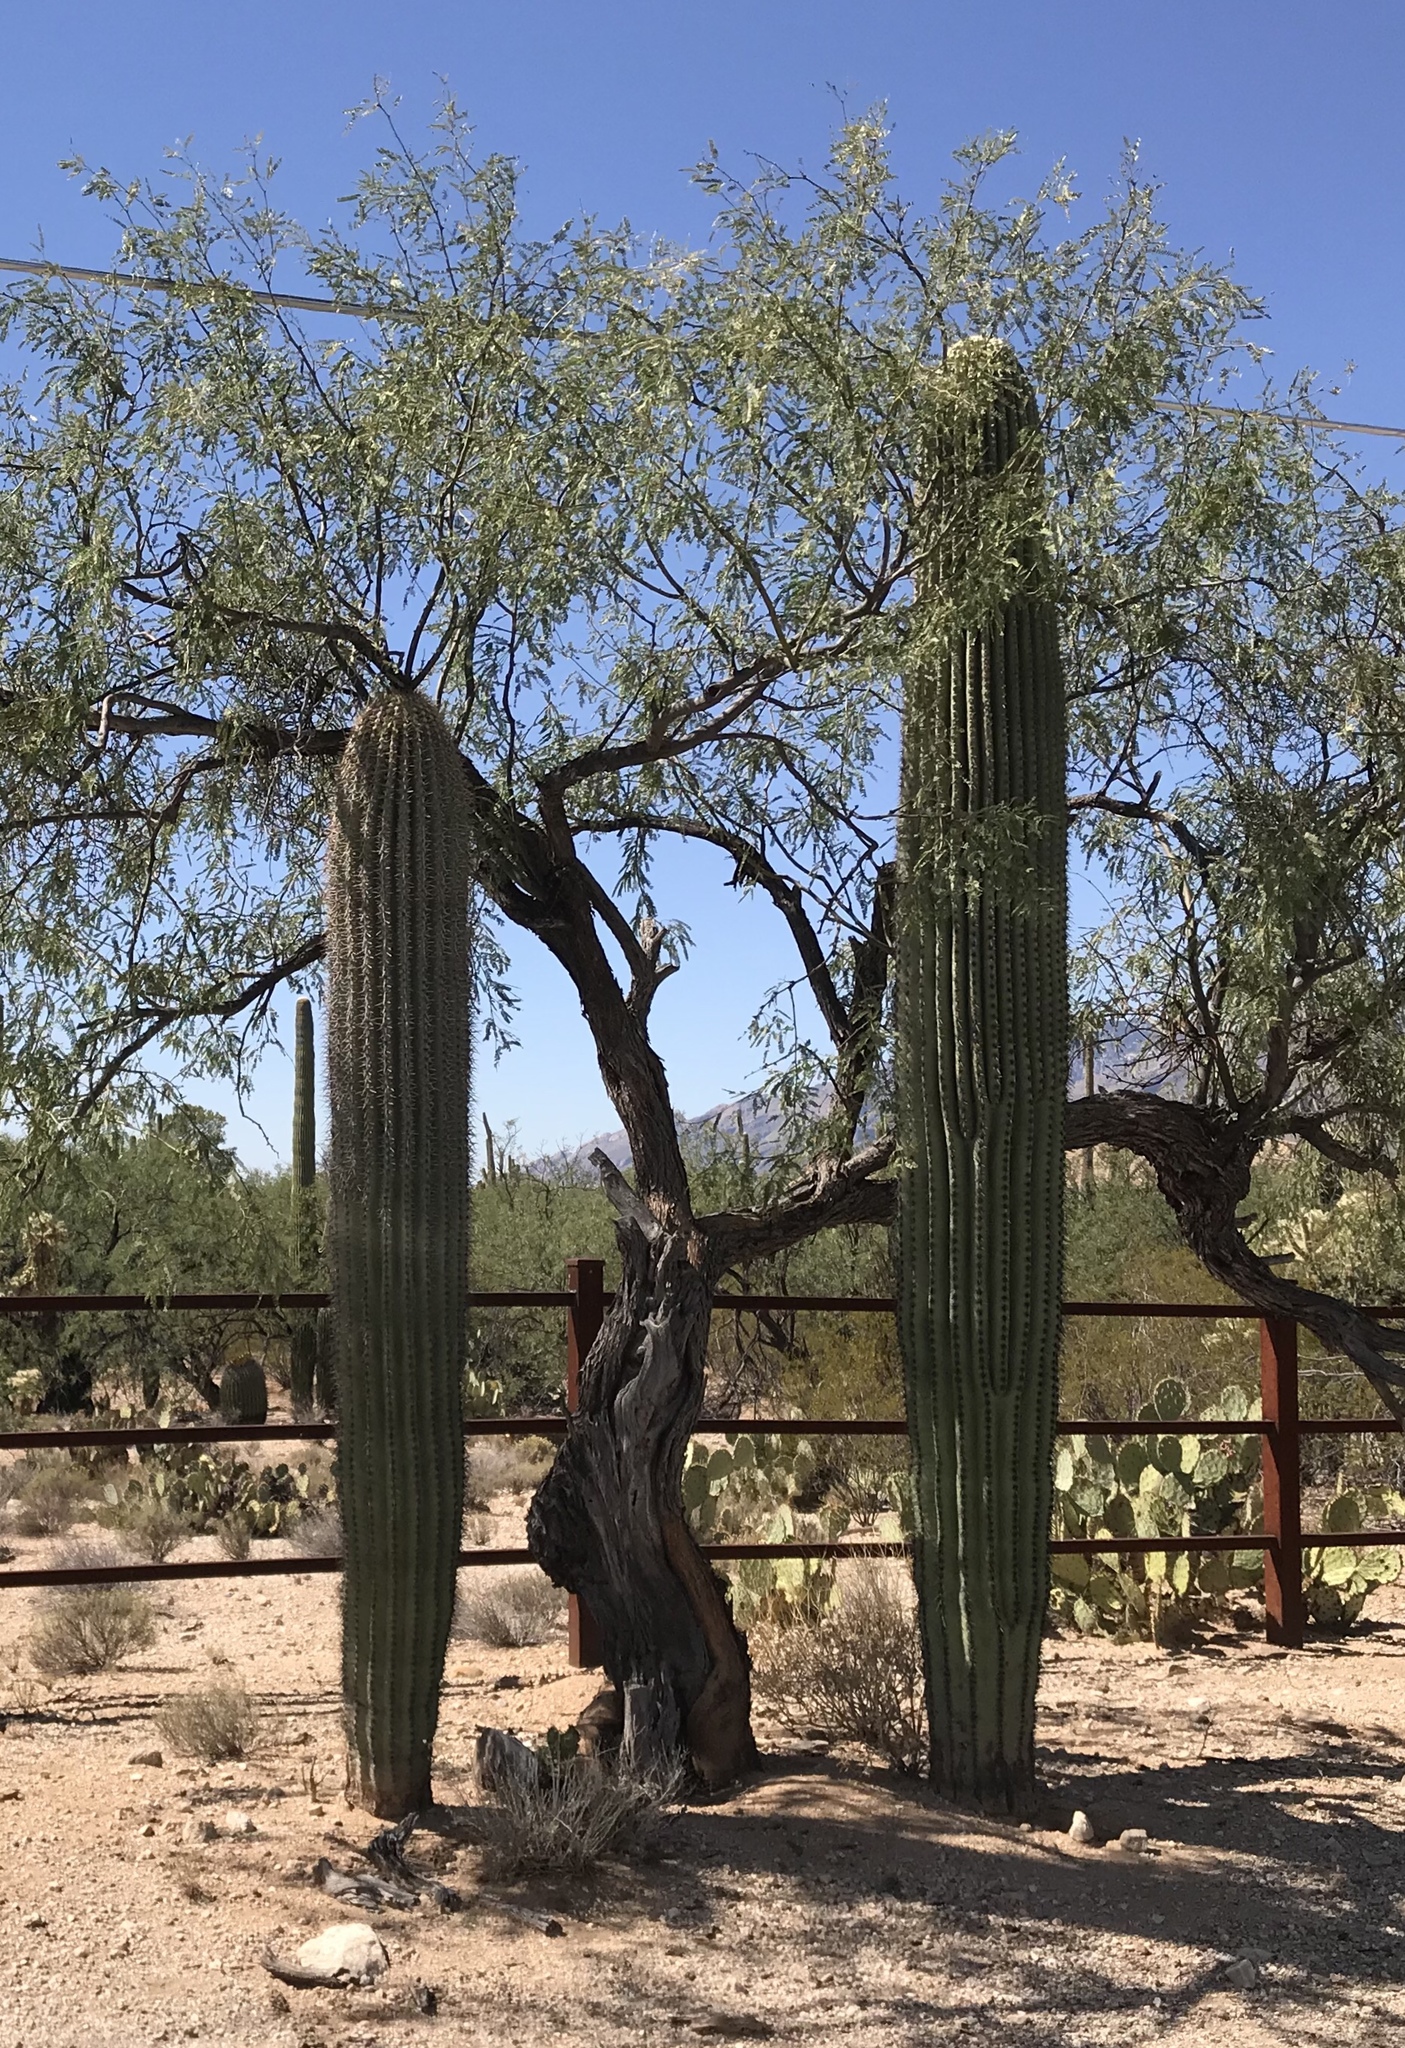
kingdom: Plantae
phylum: Tracheophyta
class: Magnoliopsida
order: Caryophyllales
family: Cactaceae
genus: Carnegiea
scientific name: Carnegiea gigantea
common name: Saguaro
